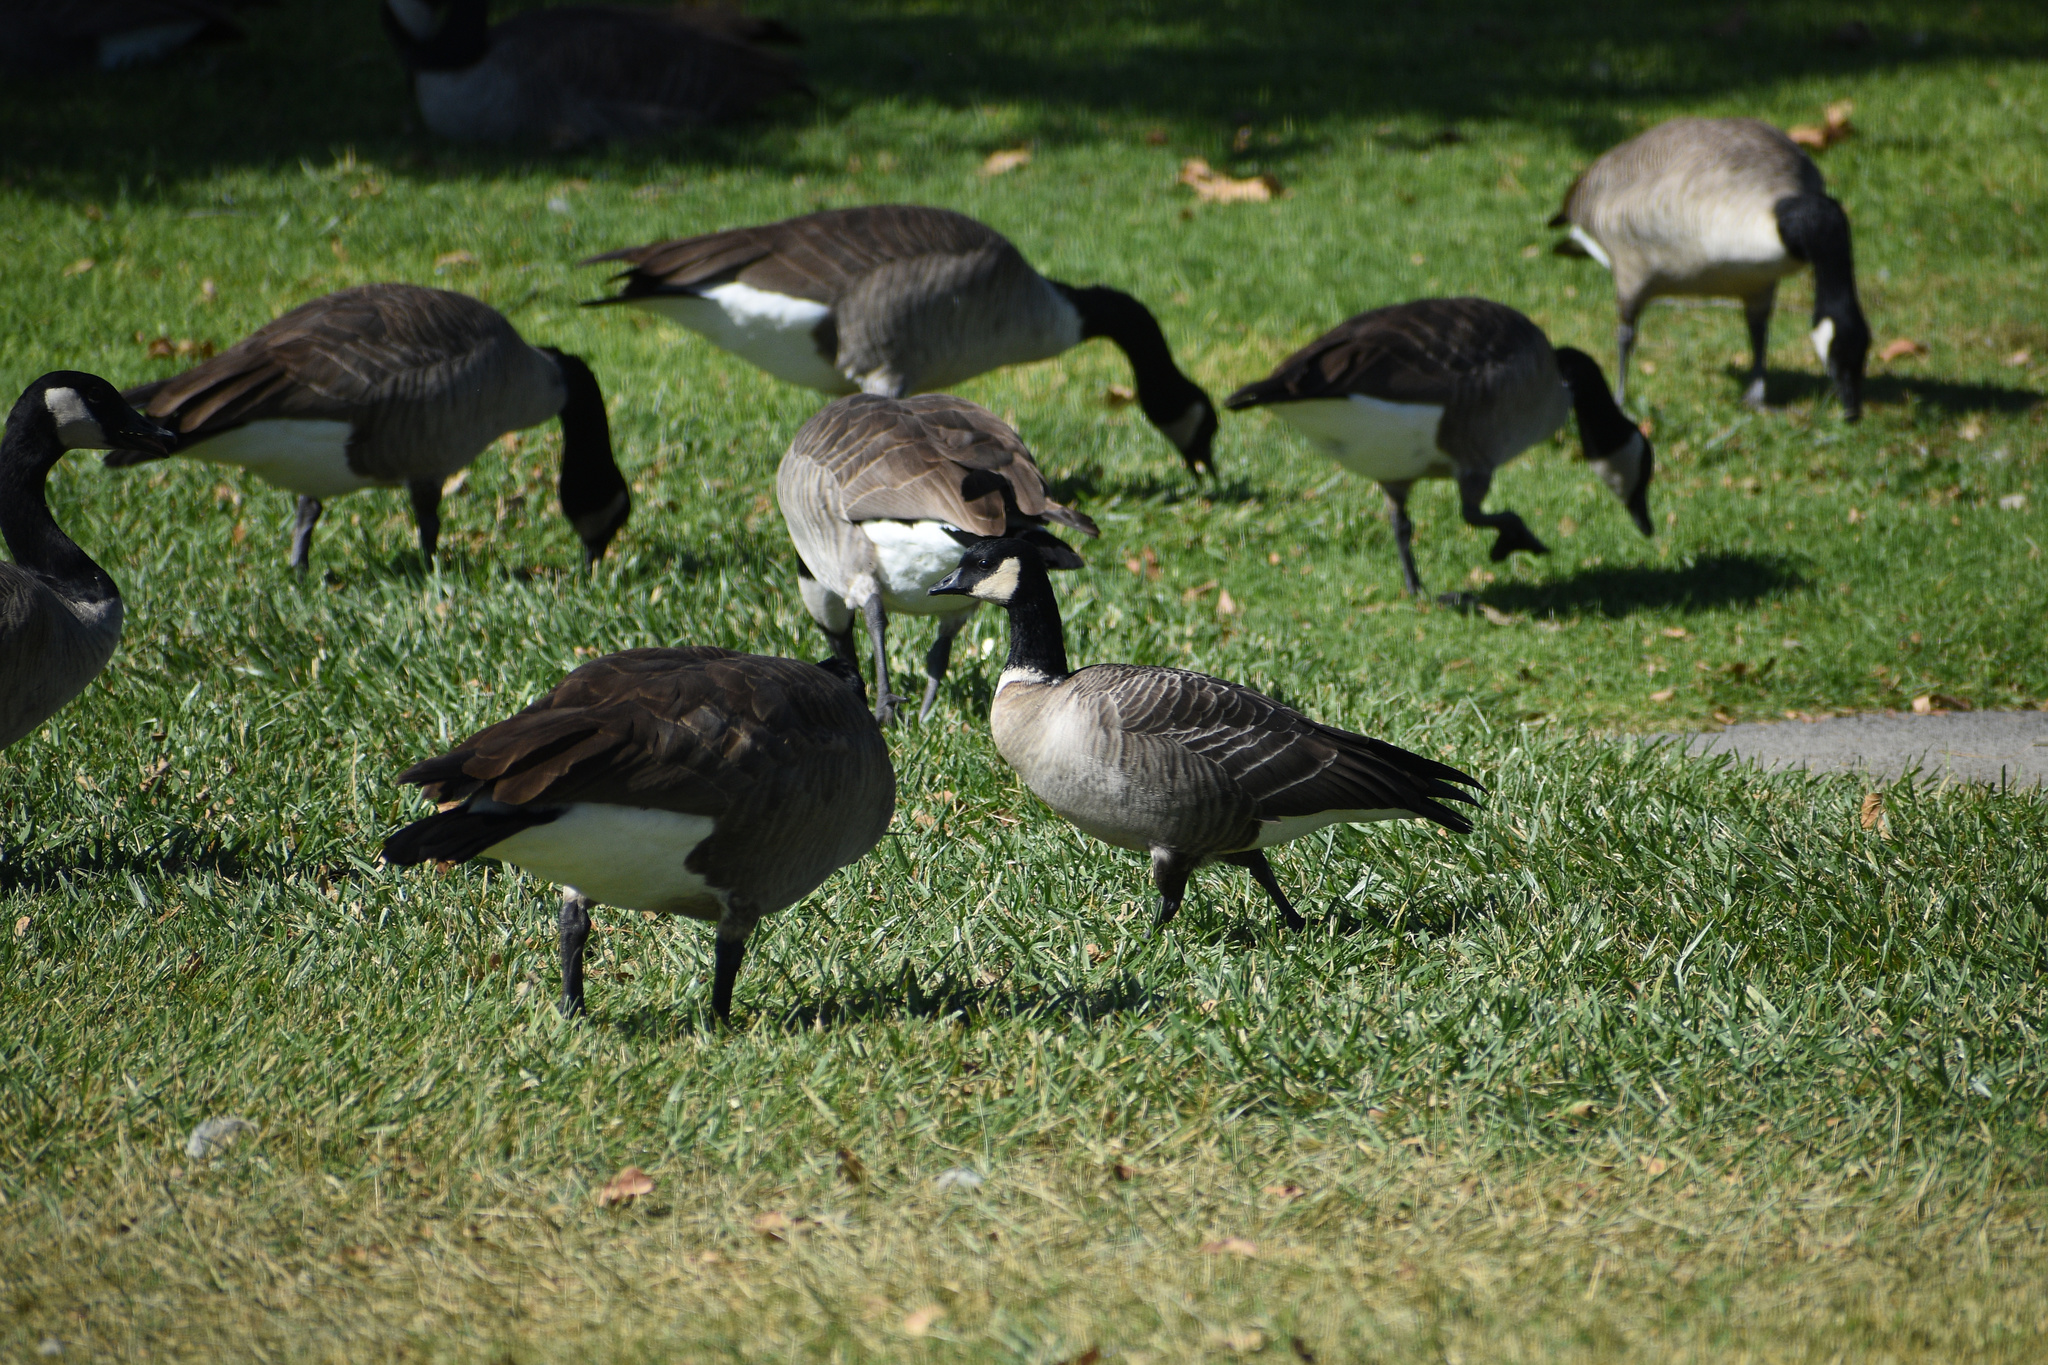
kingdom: Animalia
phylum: Chordata
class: Aves
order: Anseriformes
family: Anatidae
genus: Branta
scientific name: Branta hutchinsii
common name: Cackling goose
